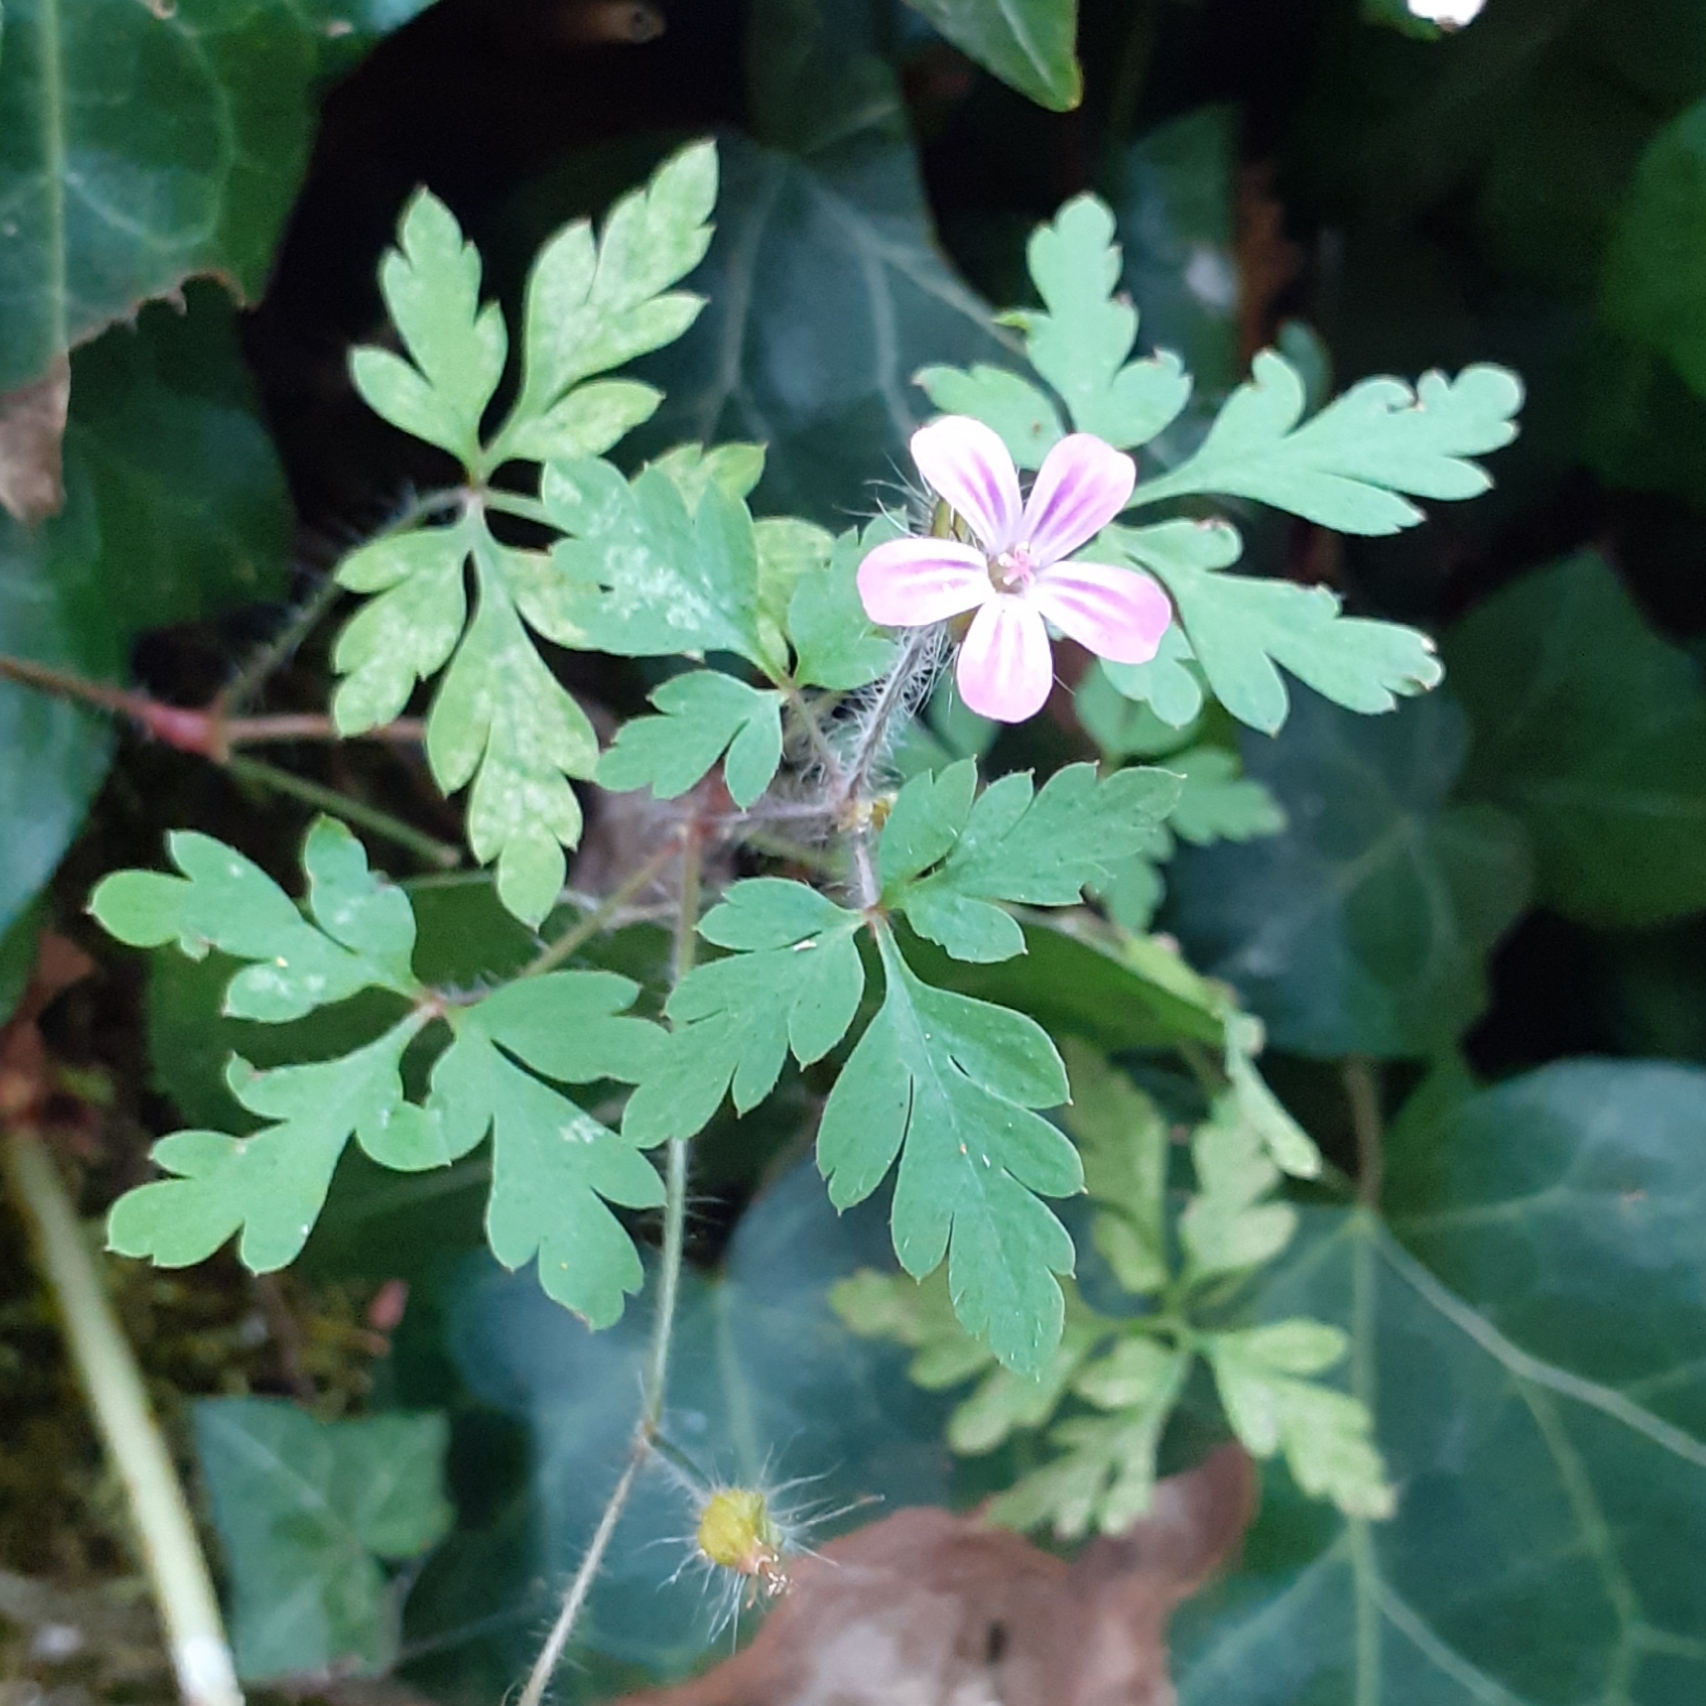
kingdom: Plantae
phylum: Tracheophyta
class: Magnoliopsida
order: Geraniales
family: Geraniaceae
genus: Geranium
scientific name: Geranium robertianum
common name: Herb-robert
